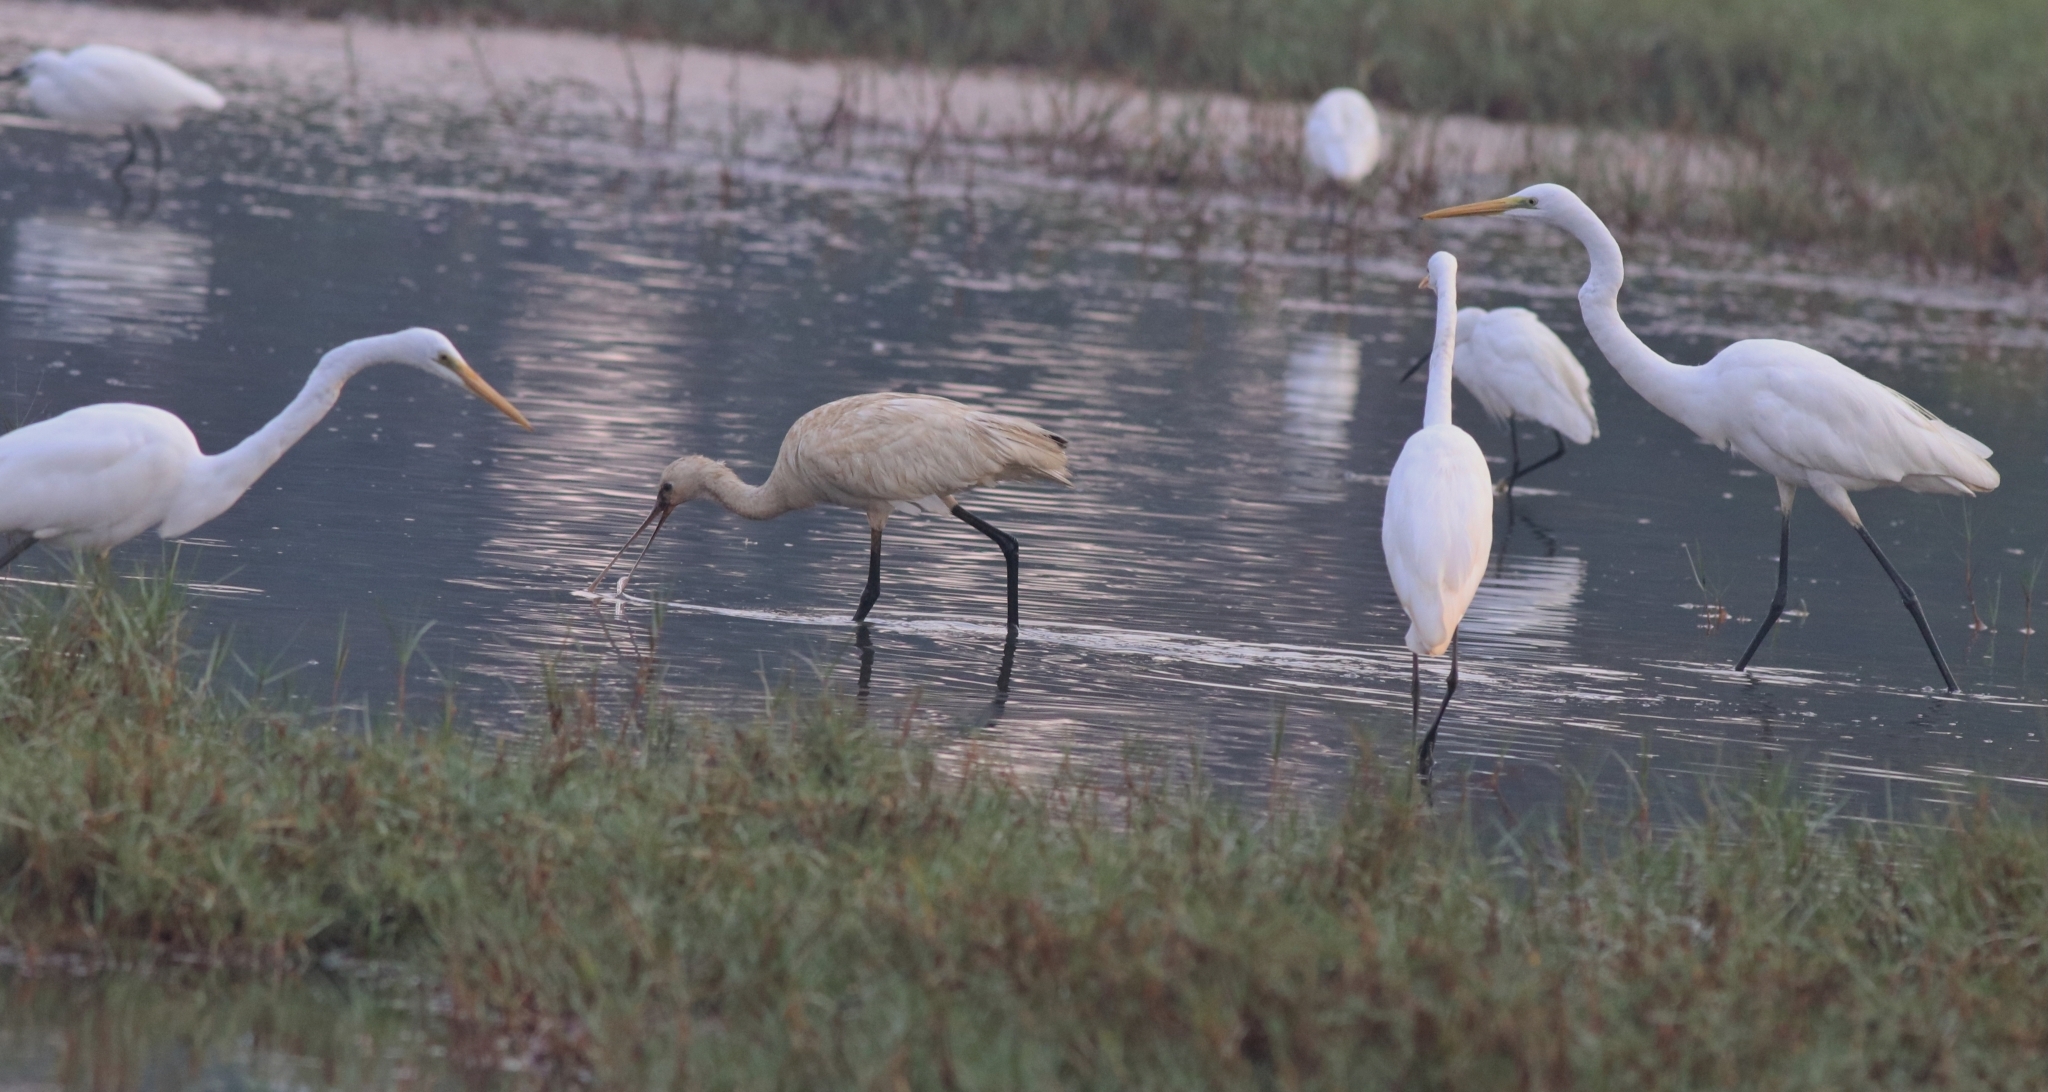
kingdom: Animalia
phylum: Chordata
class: Aves
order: Pelecaniformes
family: Threskiornithidae
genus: Platalea
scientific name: Platalea leucorodia
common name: Eurasian spoonbill
